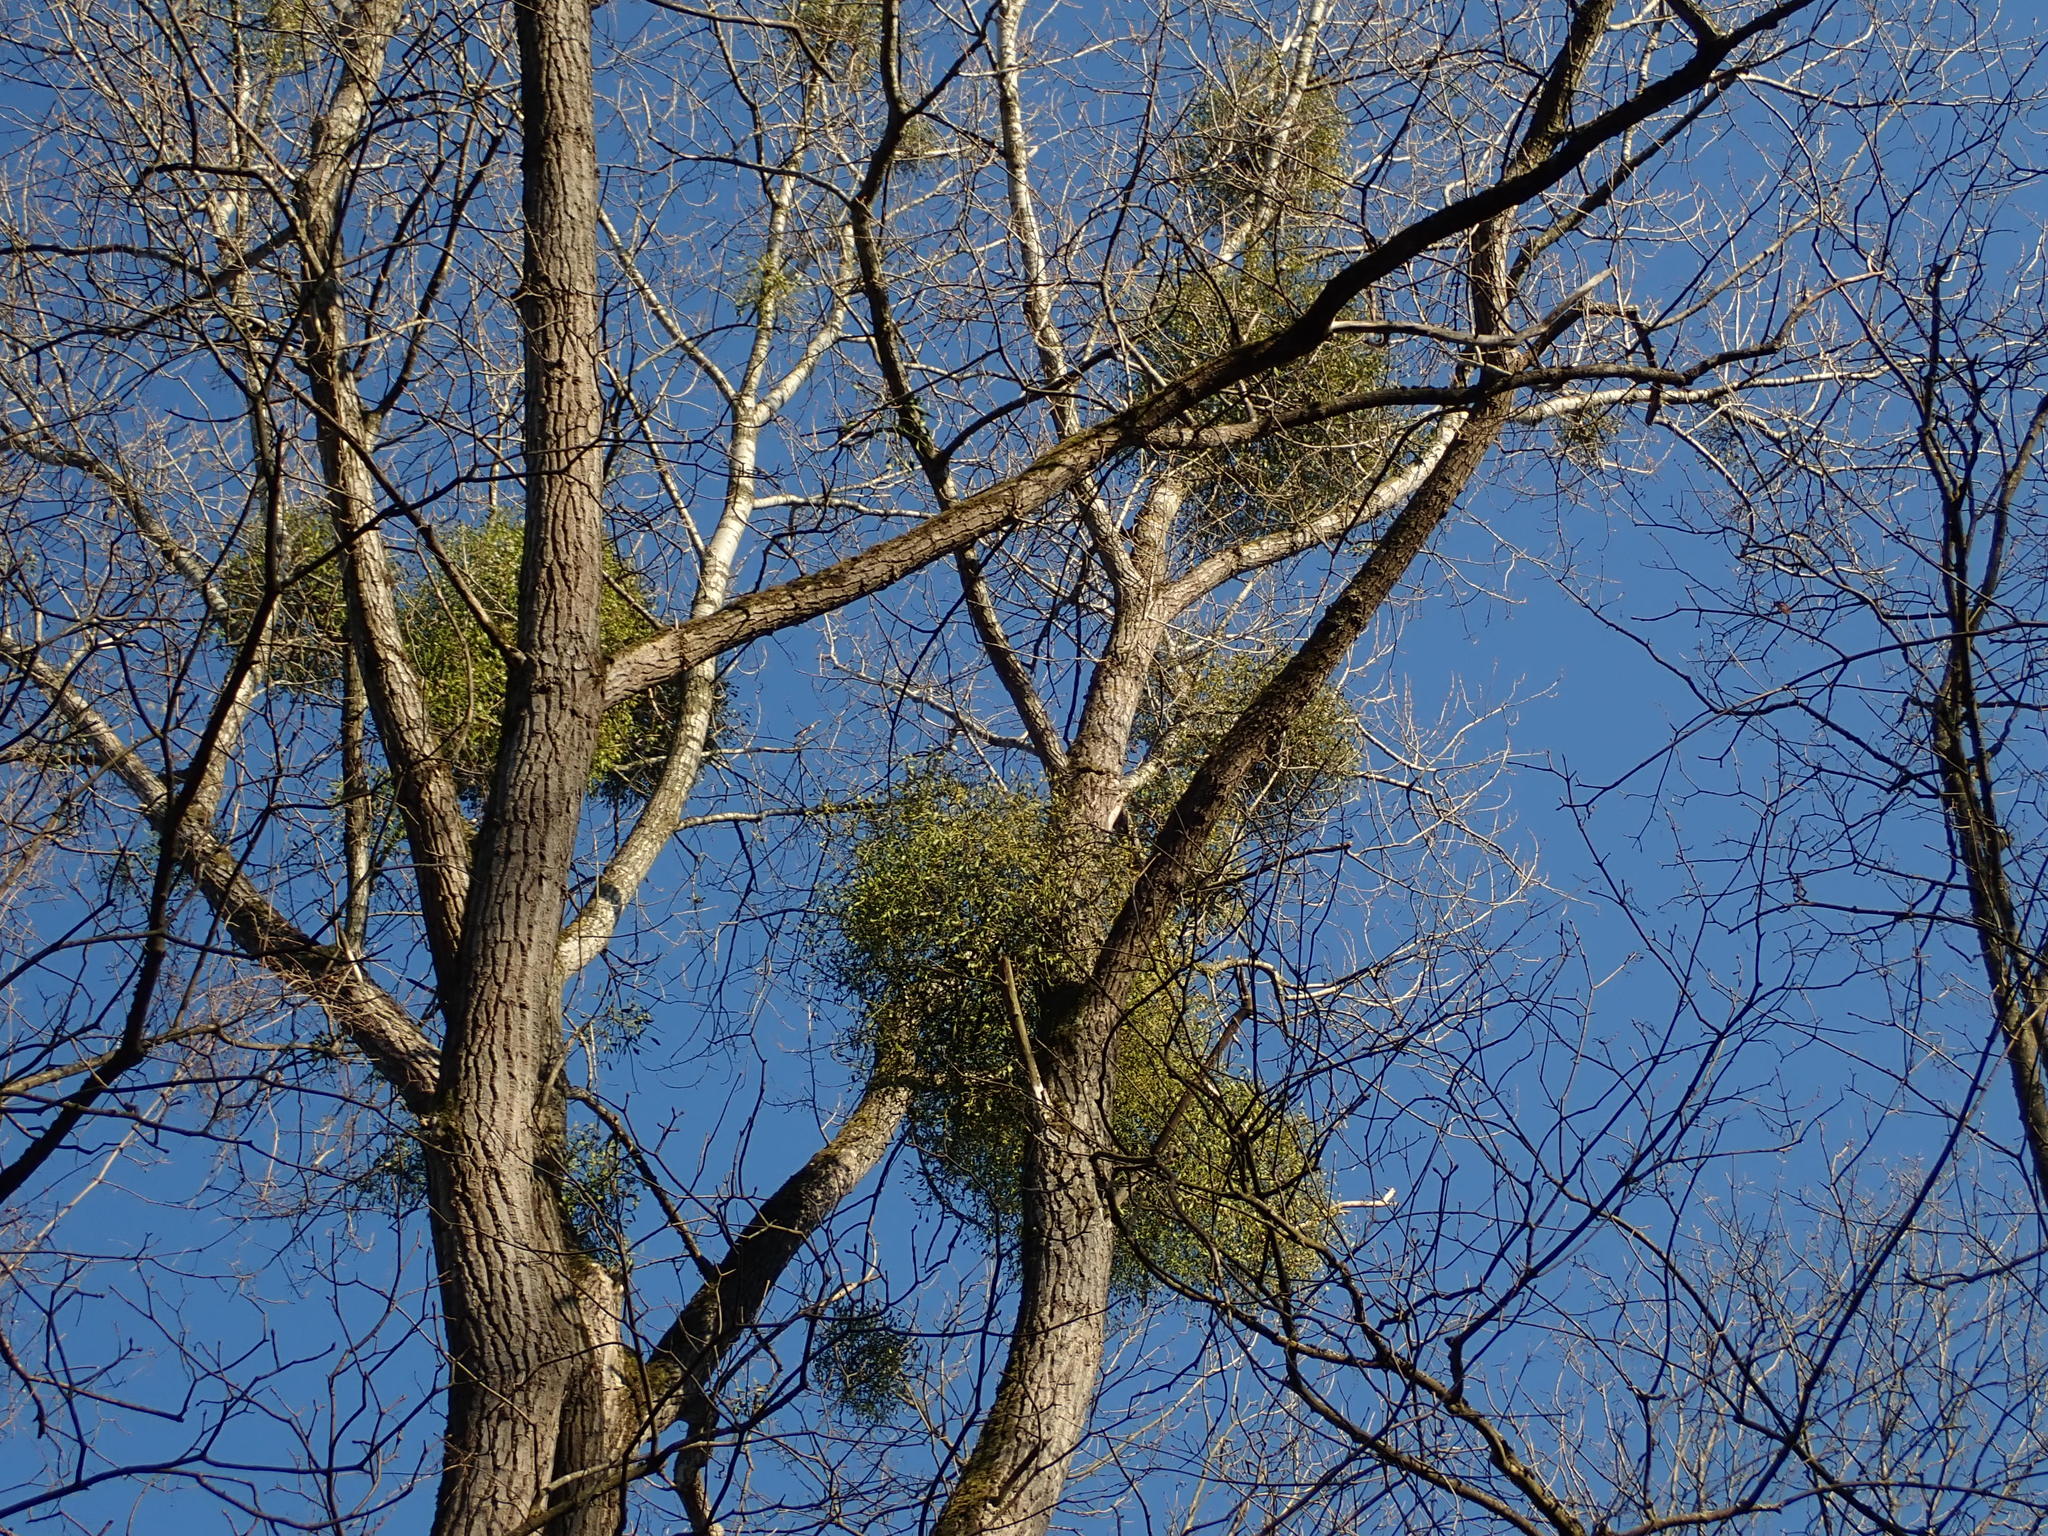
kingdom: Plantae
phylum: Tracheophyta
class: Magnoliopsida
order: Santalales
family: Viscaceae
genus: Viscum
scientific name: Viscum album
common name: Mistletoe
